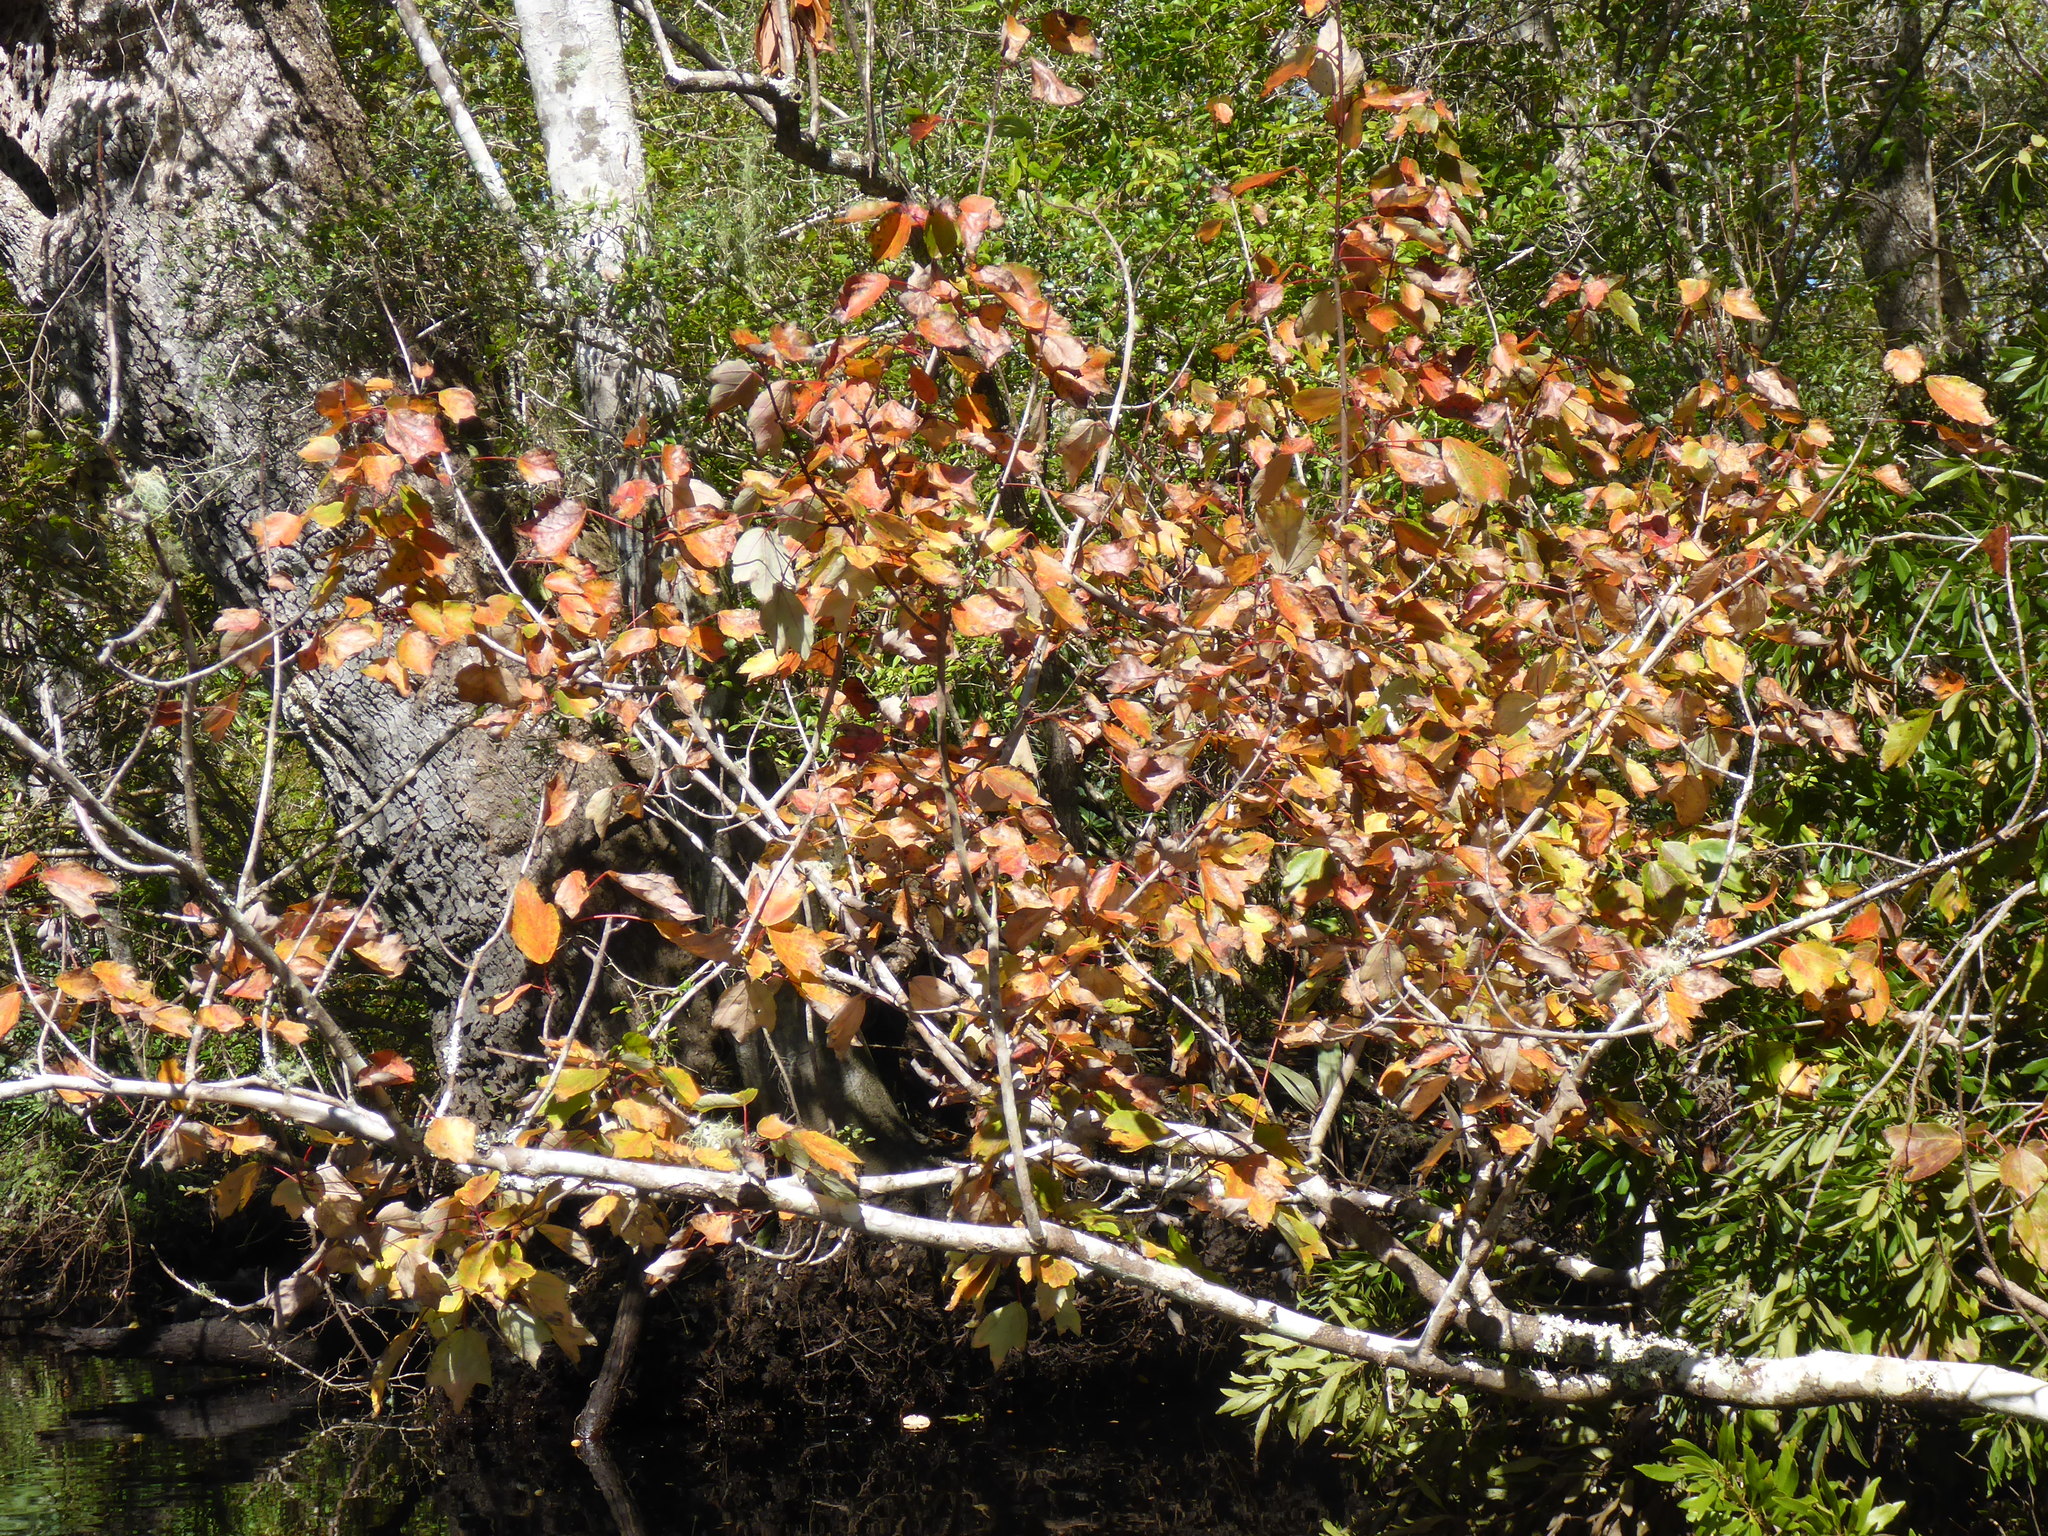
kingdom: Plantae
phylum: Tracheophyta
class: Magnoliopsida
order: Sapindales
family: Sapindaceae
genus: Acer
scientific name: Acer rubrum
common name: Red maple
